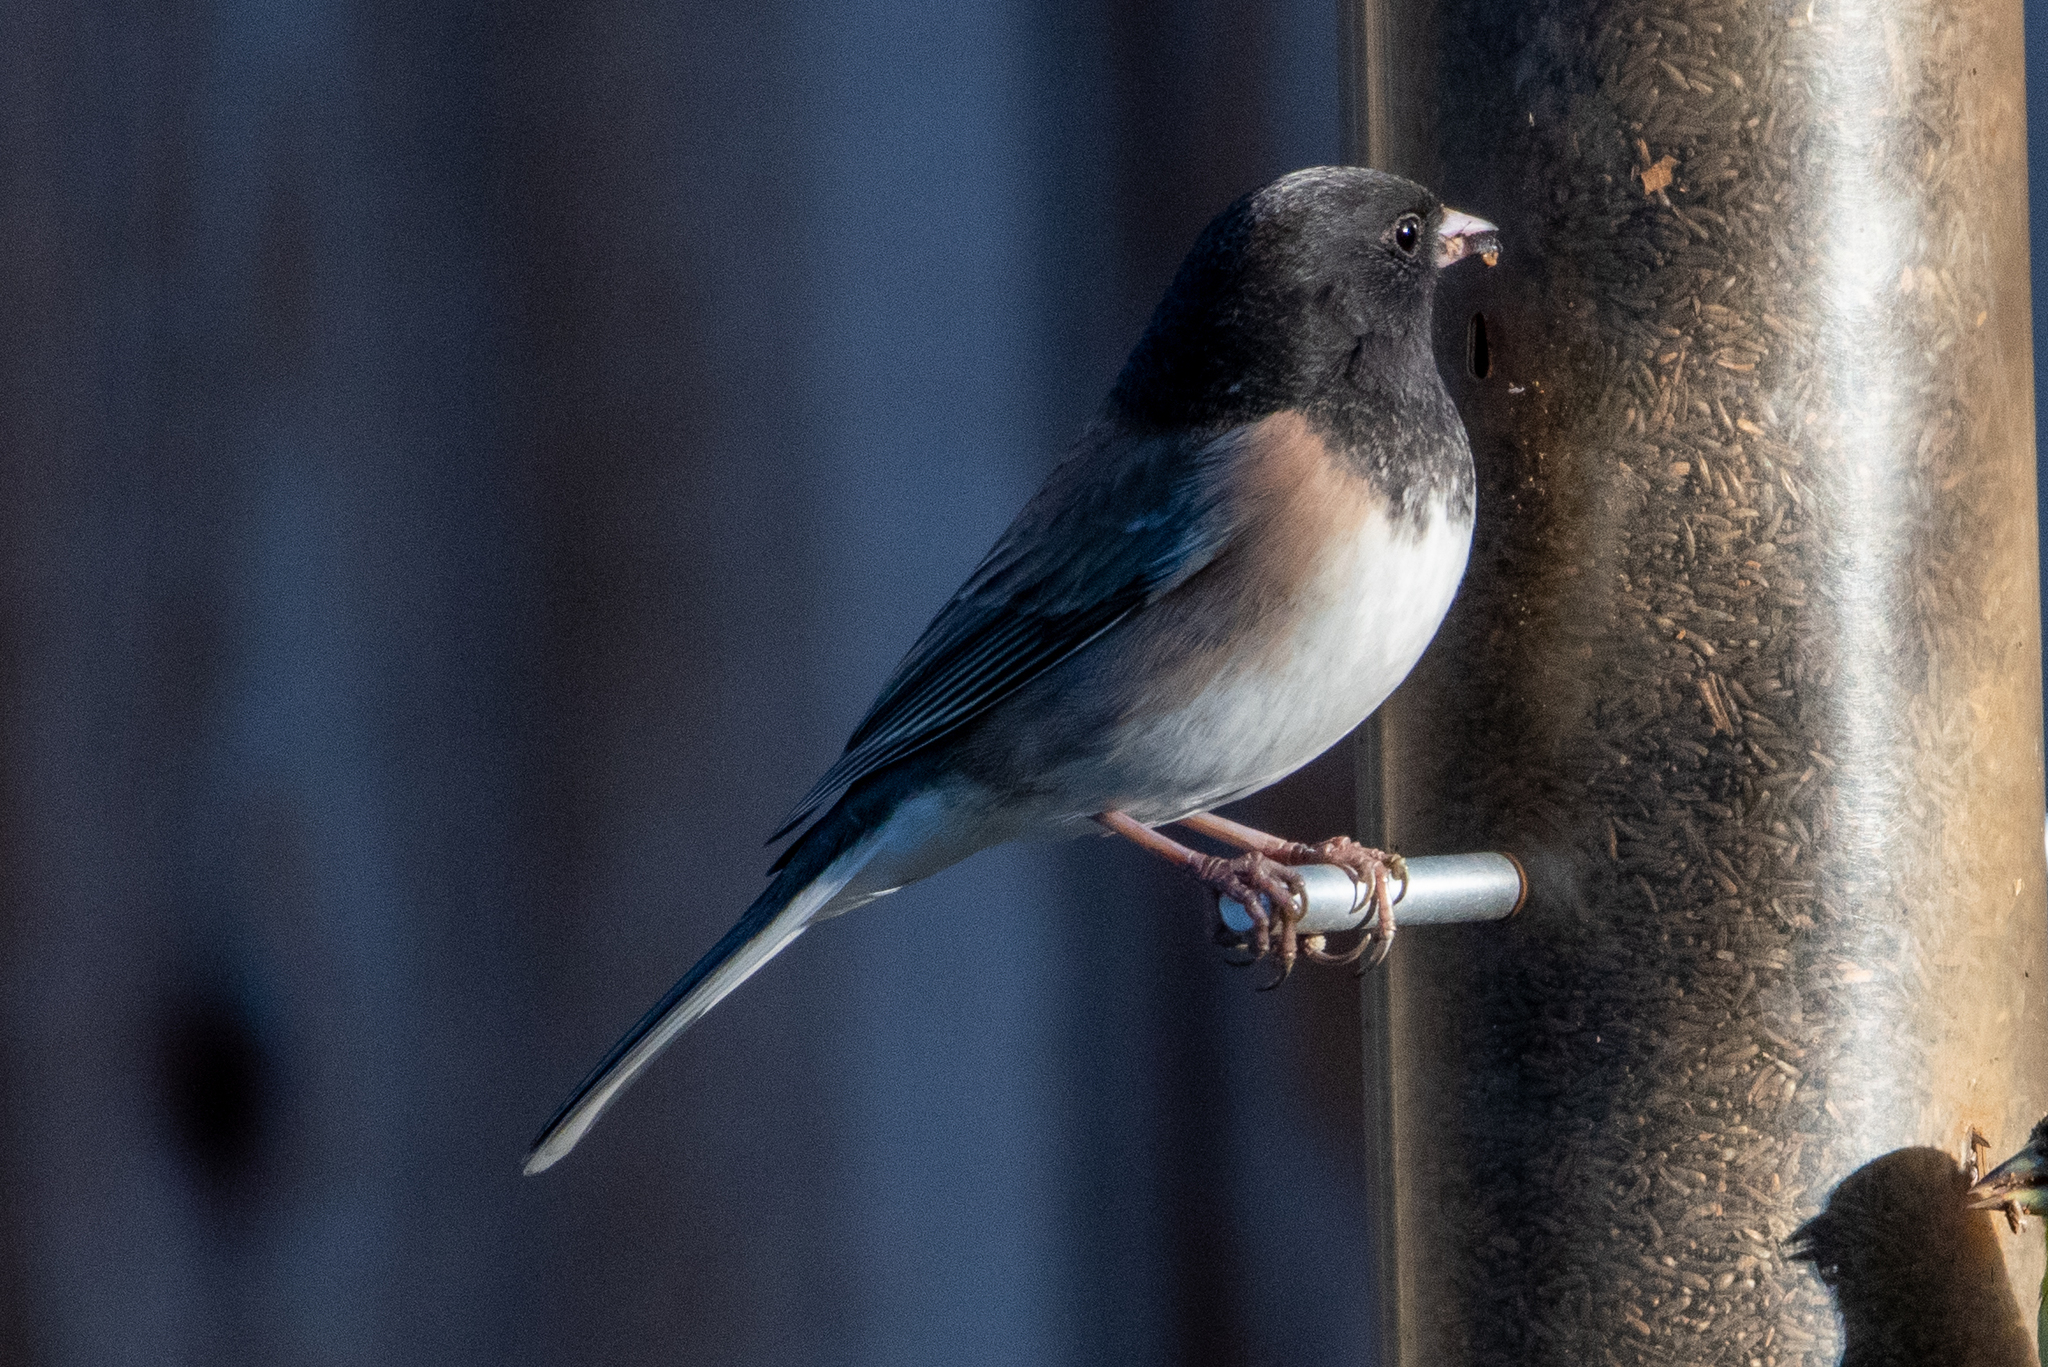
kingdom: Animalia
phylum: Chordata
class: Aves
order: Passeriformes
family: Passerellidae
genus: Junco
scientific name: Junco hyemalis
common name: Dark-eyed junco
